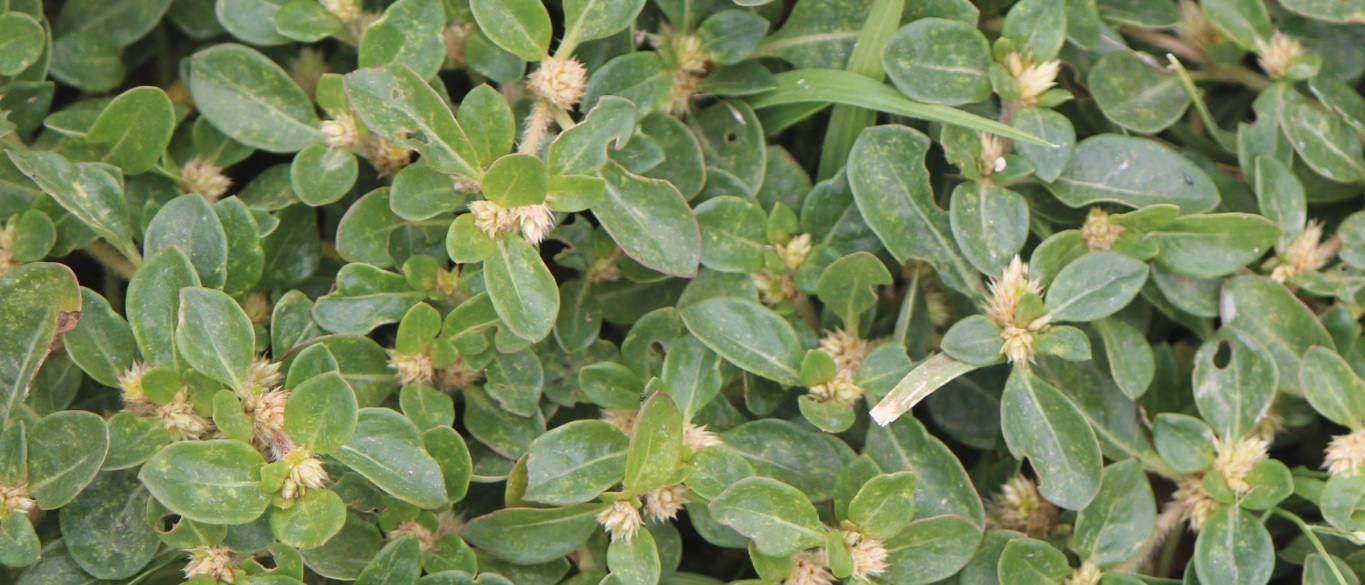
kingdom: Plantae
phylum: Tracheophyta
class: Magnoliopsida
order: Caryophyllales
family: Amaranthaceae
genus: Alternanthera
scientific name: Alternanthera caracasana
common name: Washerwoman
